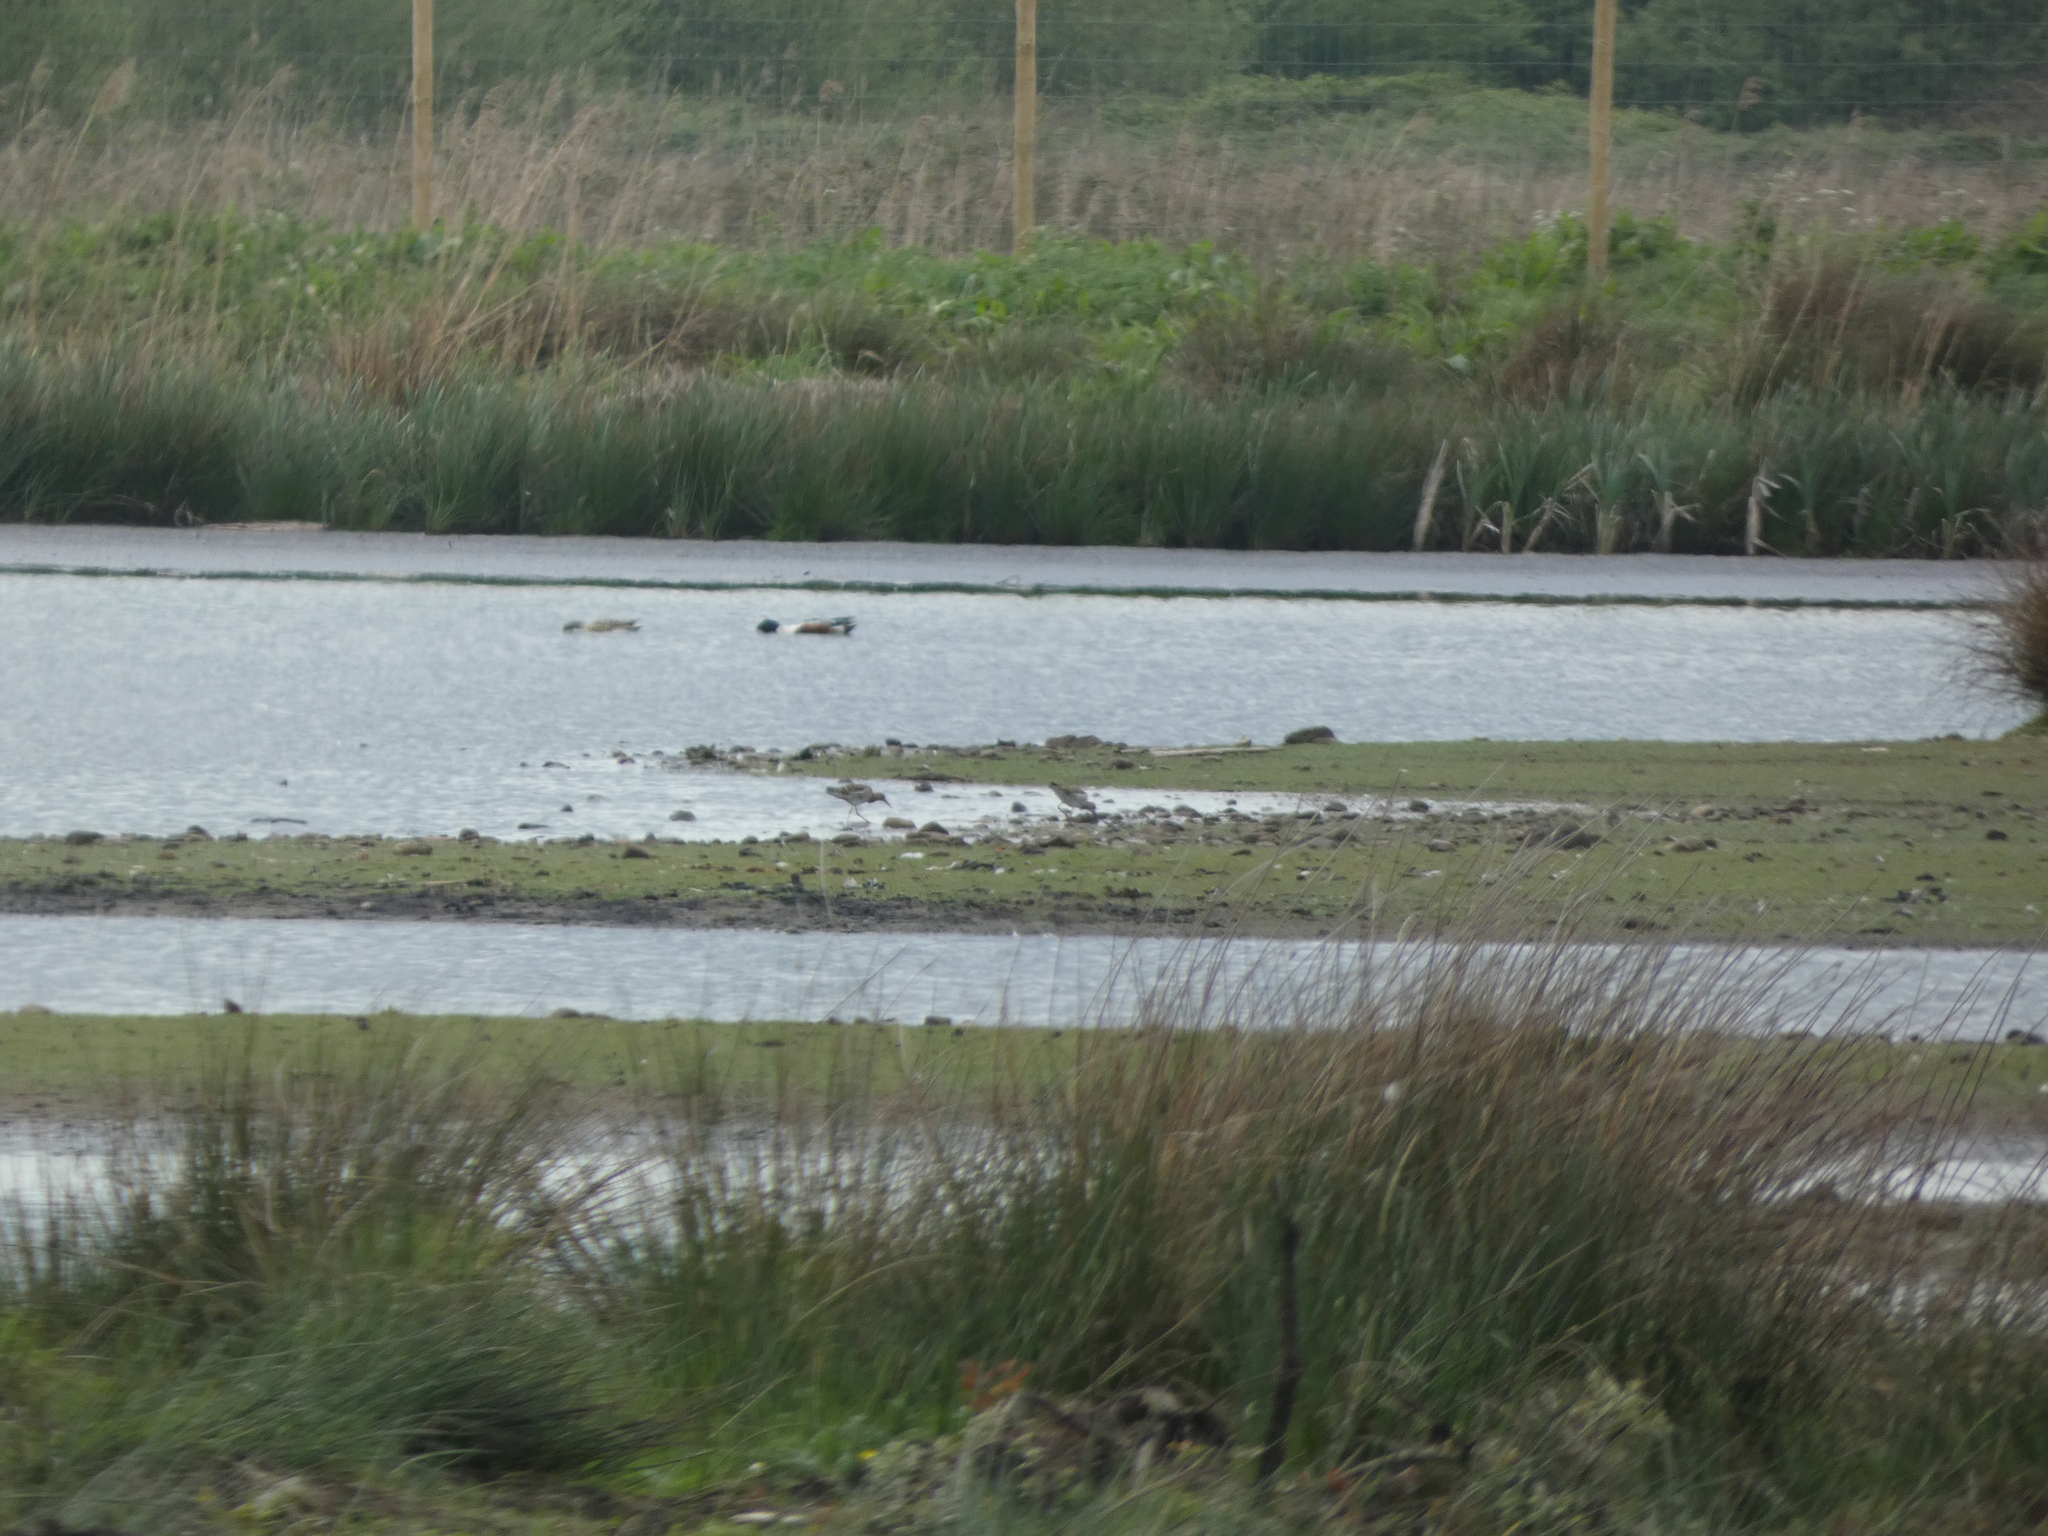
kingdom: Animalia
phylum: Chordata
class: Aves
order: Charadriiformes
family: Scolopacidae
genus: Calidris
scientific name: Calidris pugnax
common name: Ruff
